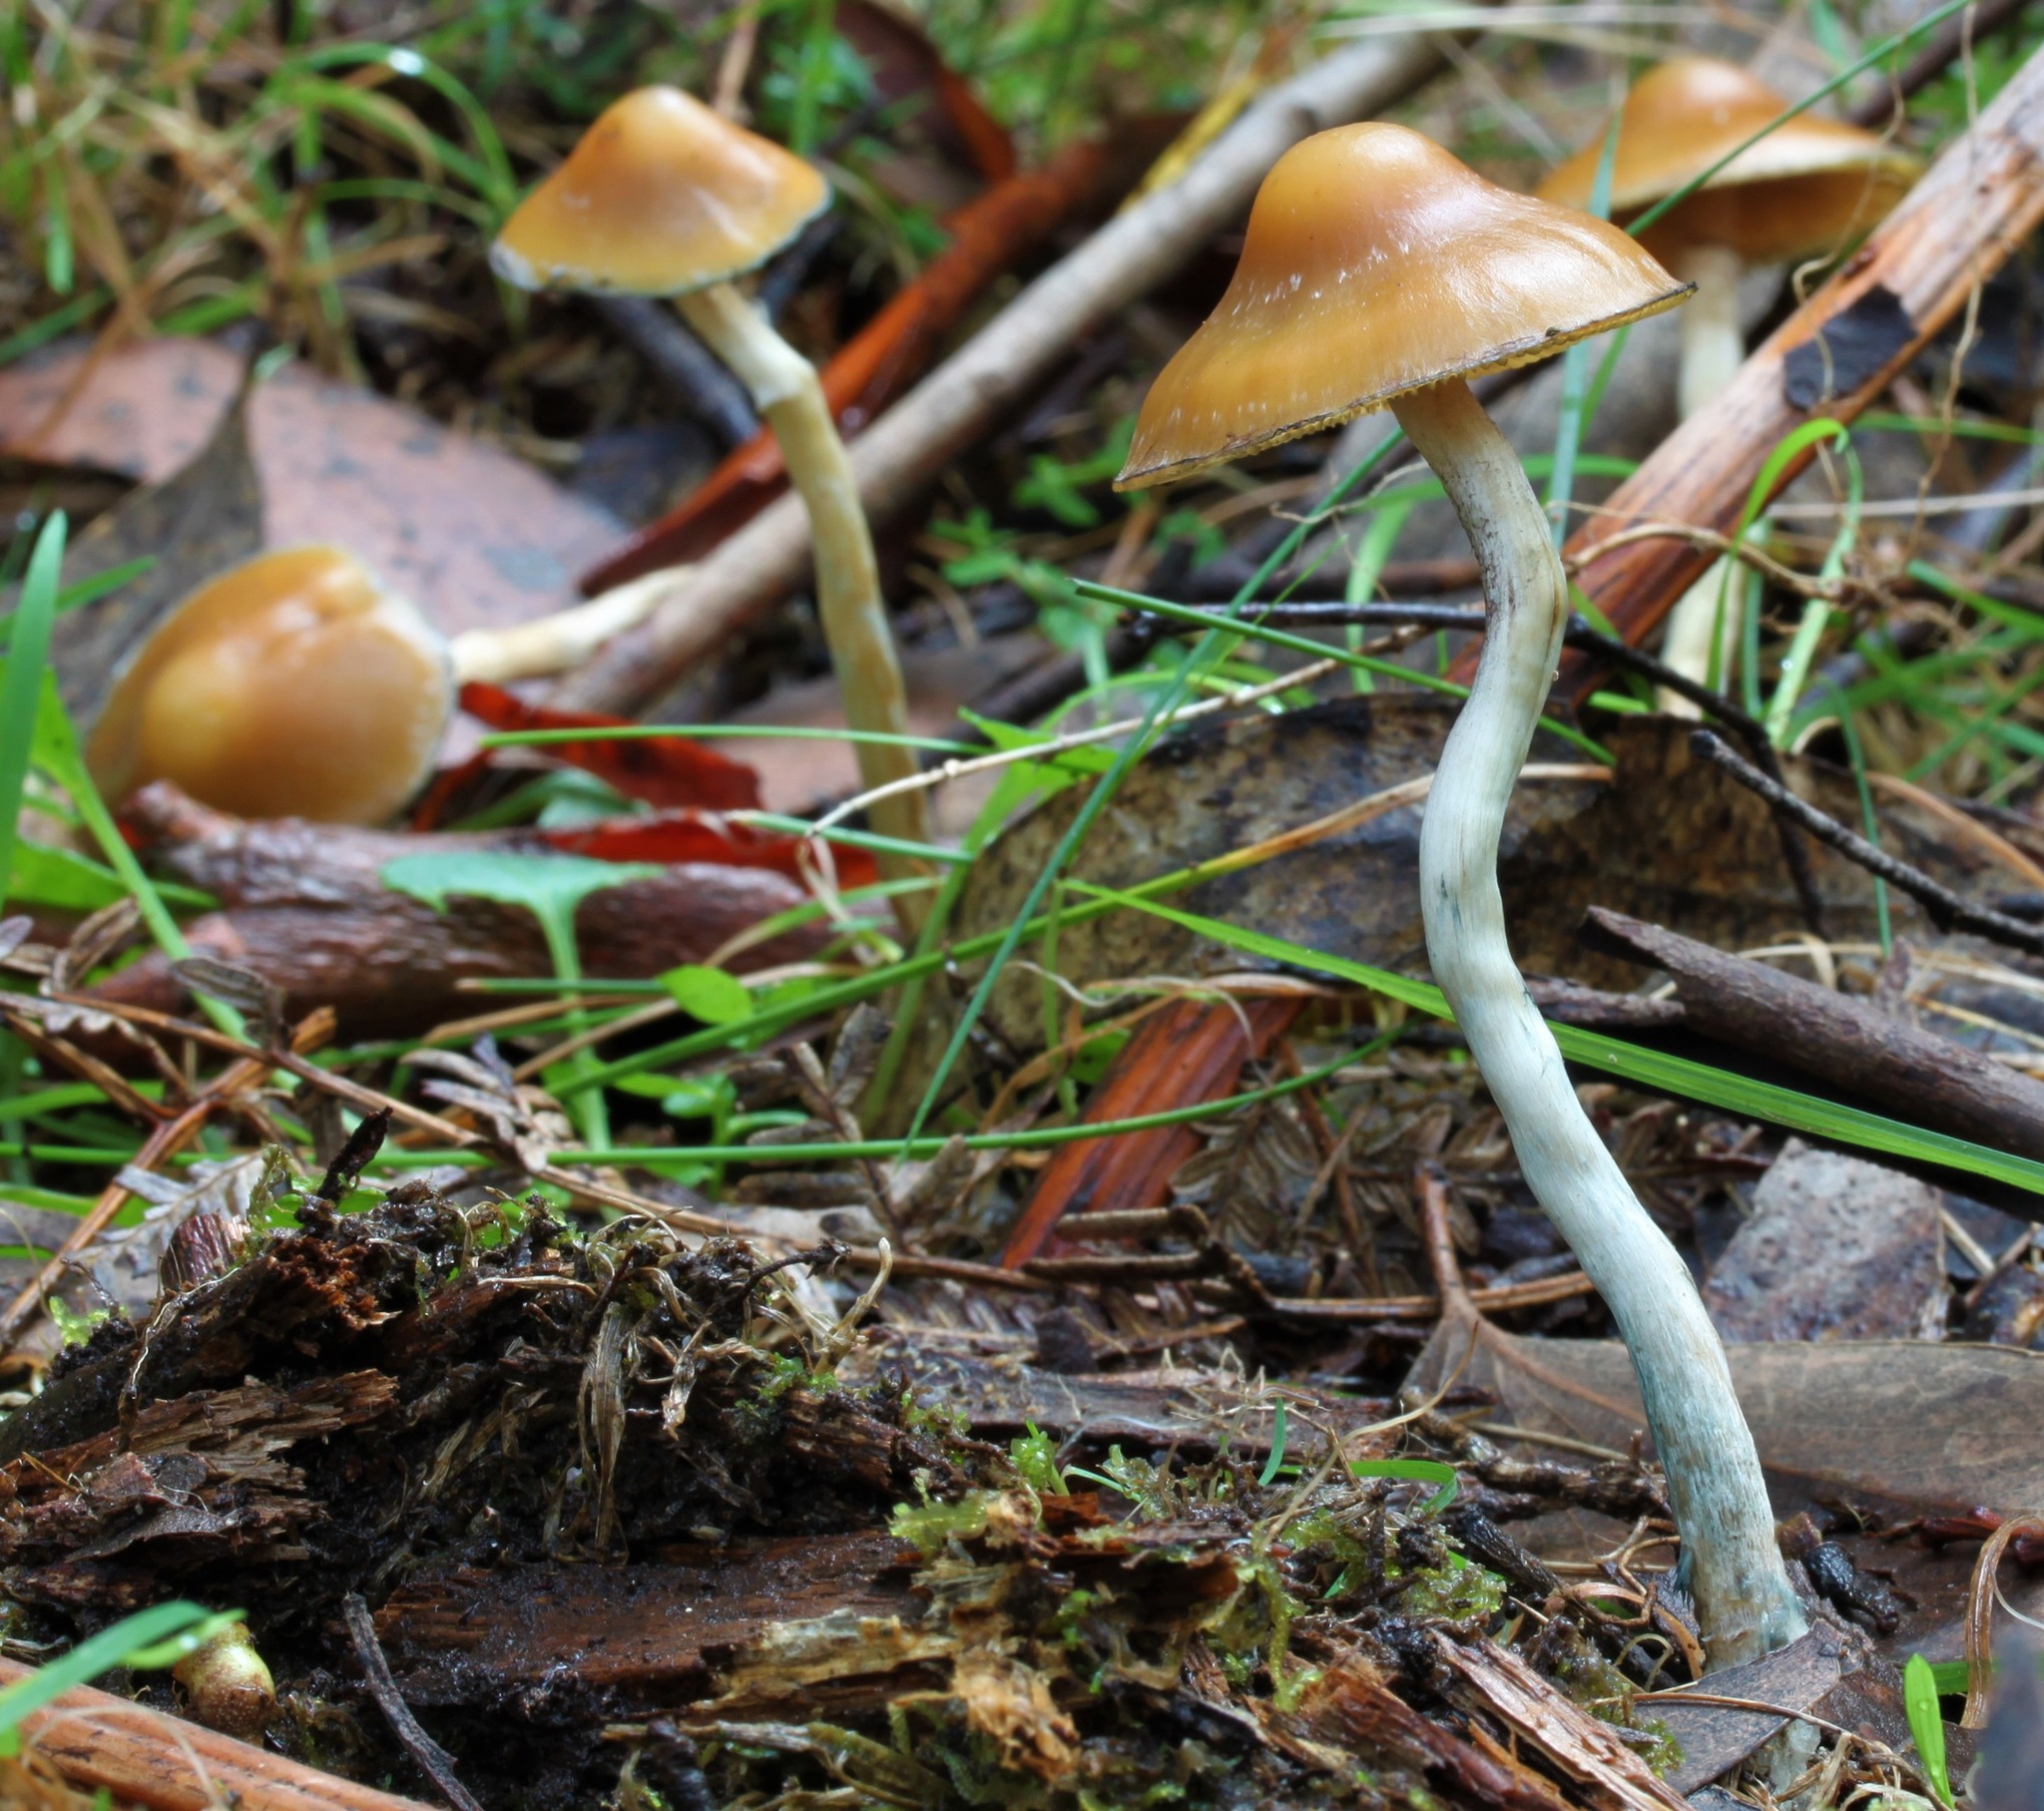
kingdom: Fungi
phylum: Basidiomycota
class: Agaricomycetes
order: Agaricales
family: Hymenogastraceae
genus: Psilocybe
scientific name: Psilocybe subaeruginosa
